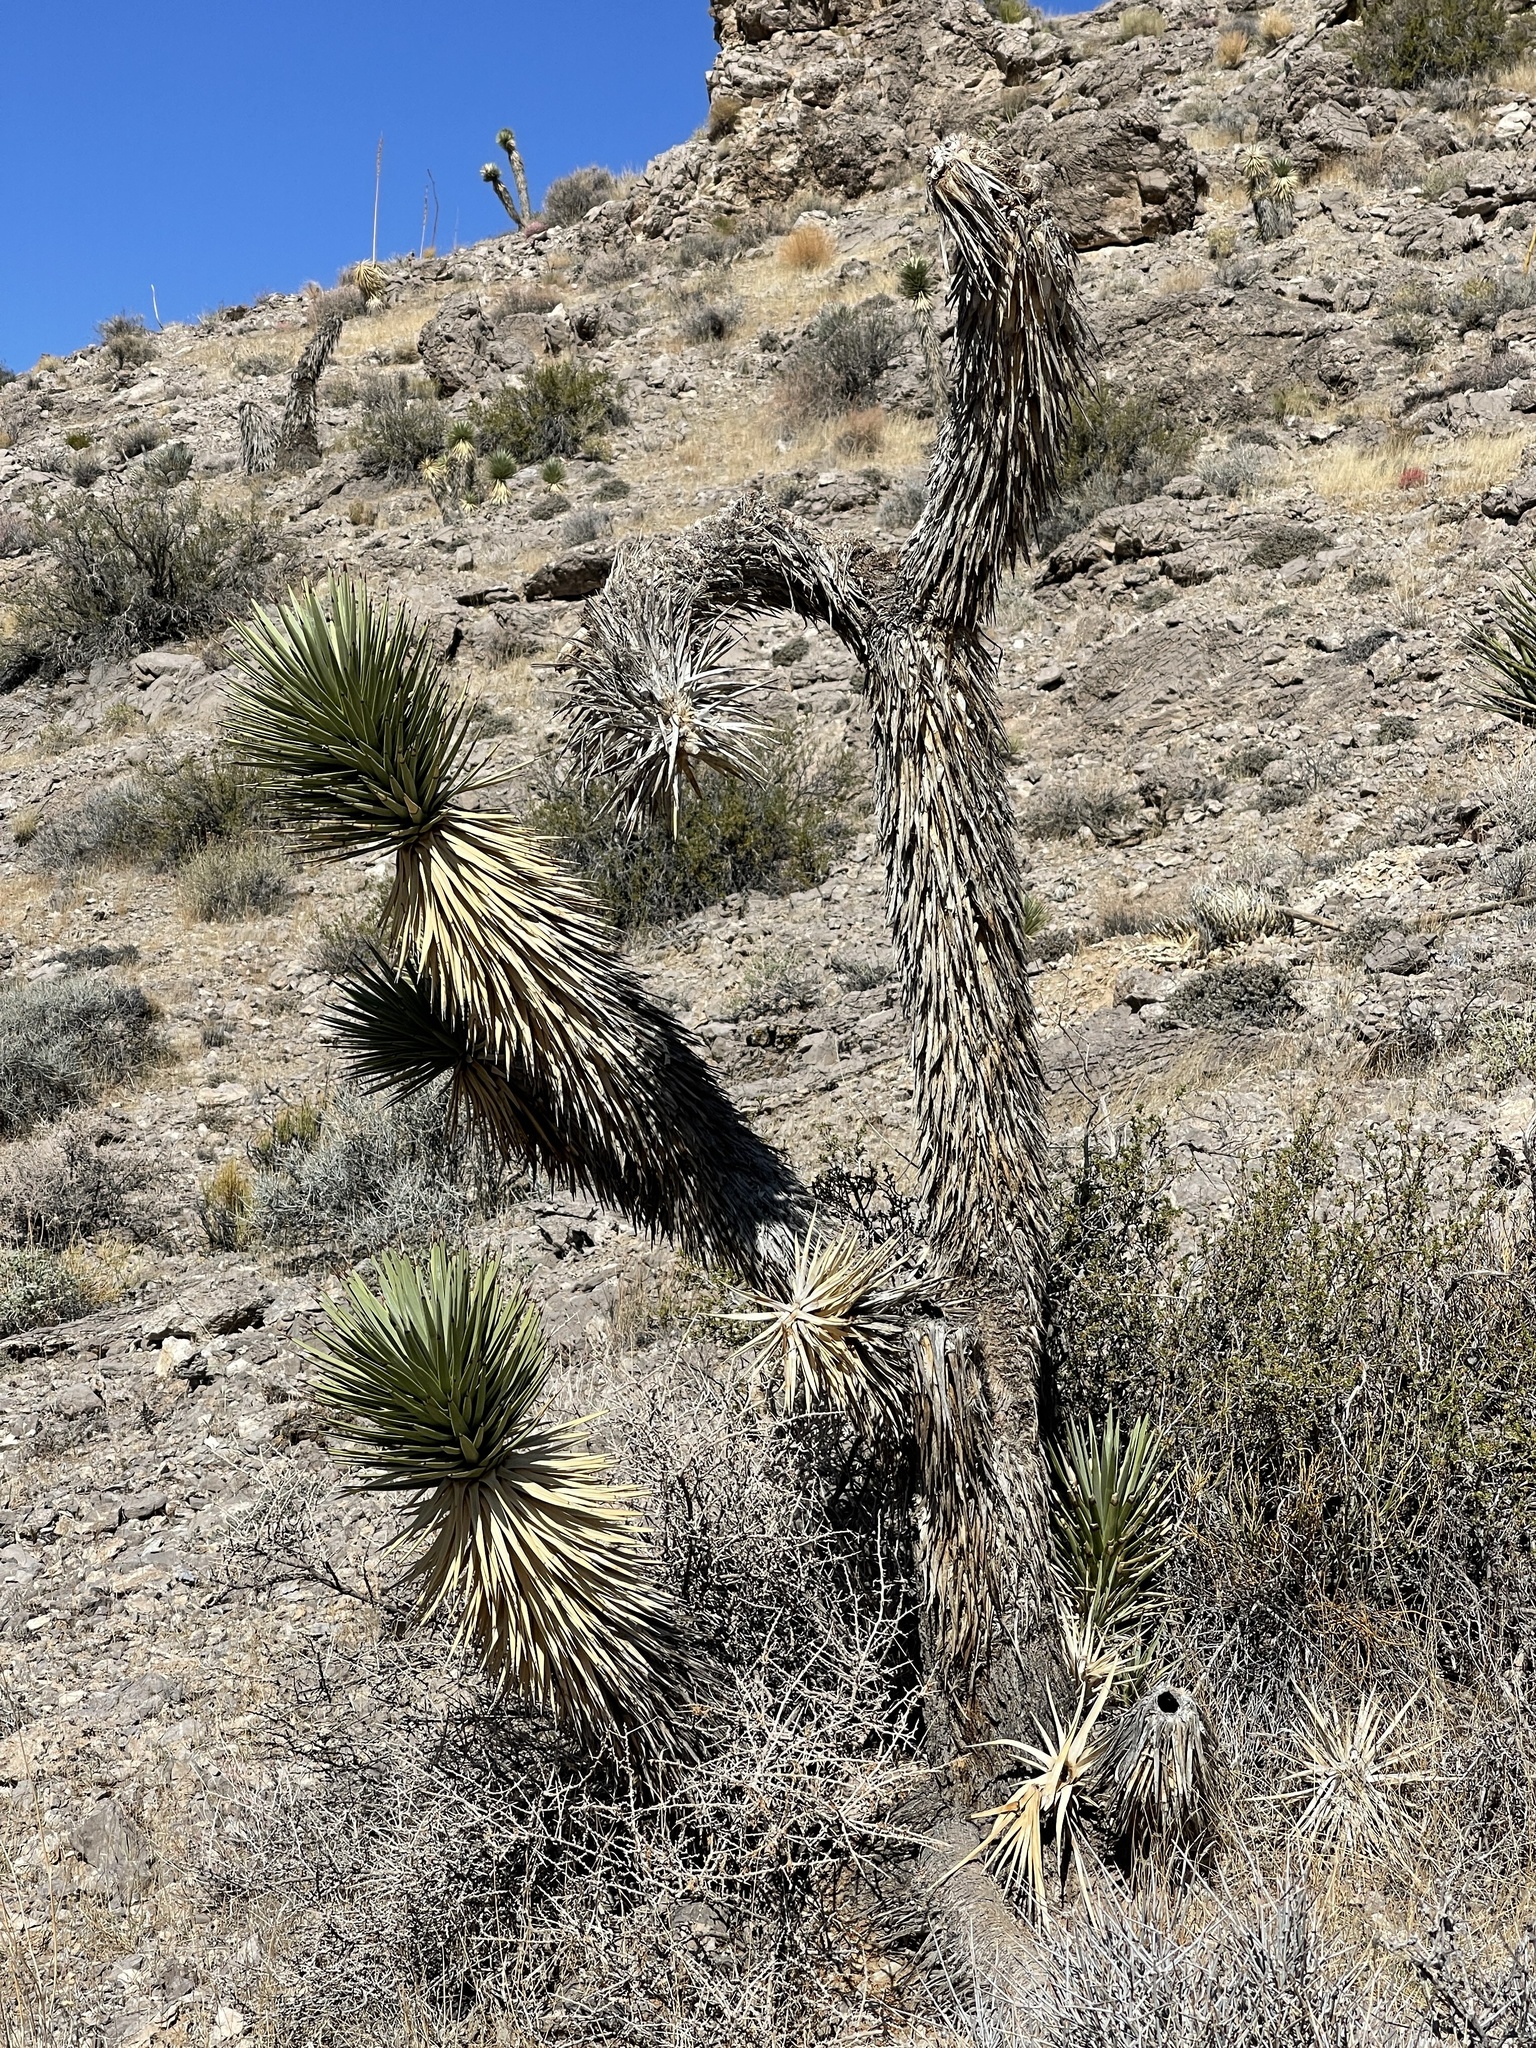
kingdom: Plantae
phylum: Tracheophyta
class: Liliopsida
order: Asparagales
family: Asparagaceae
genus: Yucca
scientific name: Yucca brevifolia
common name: Joshua tree
